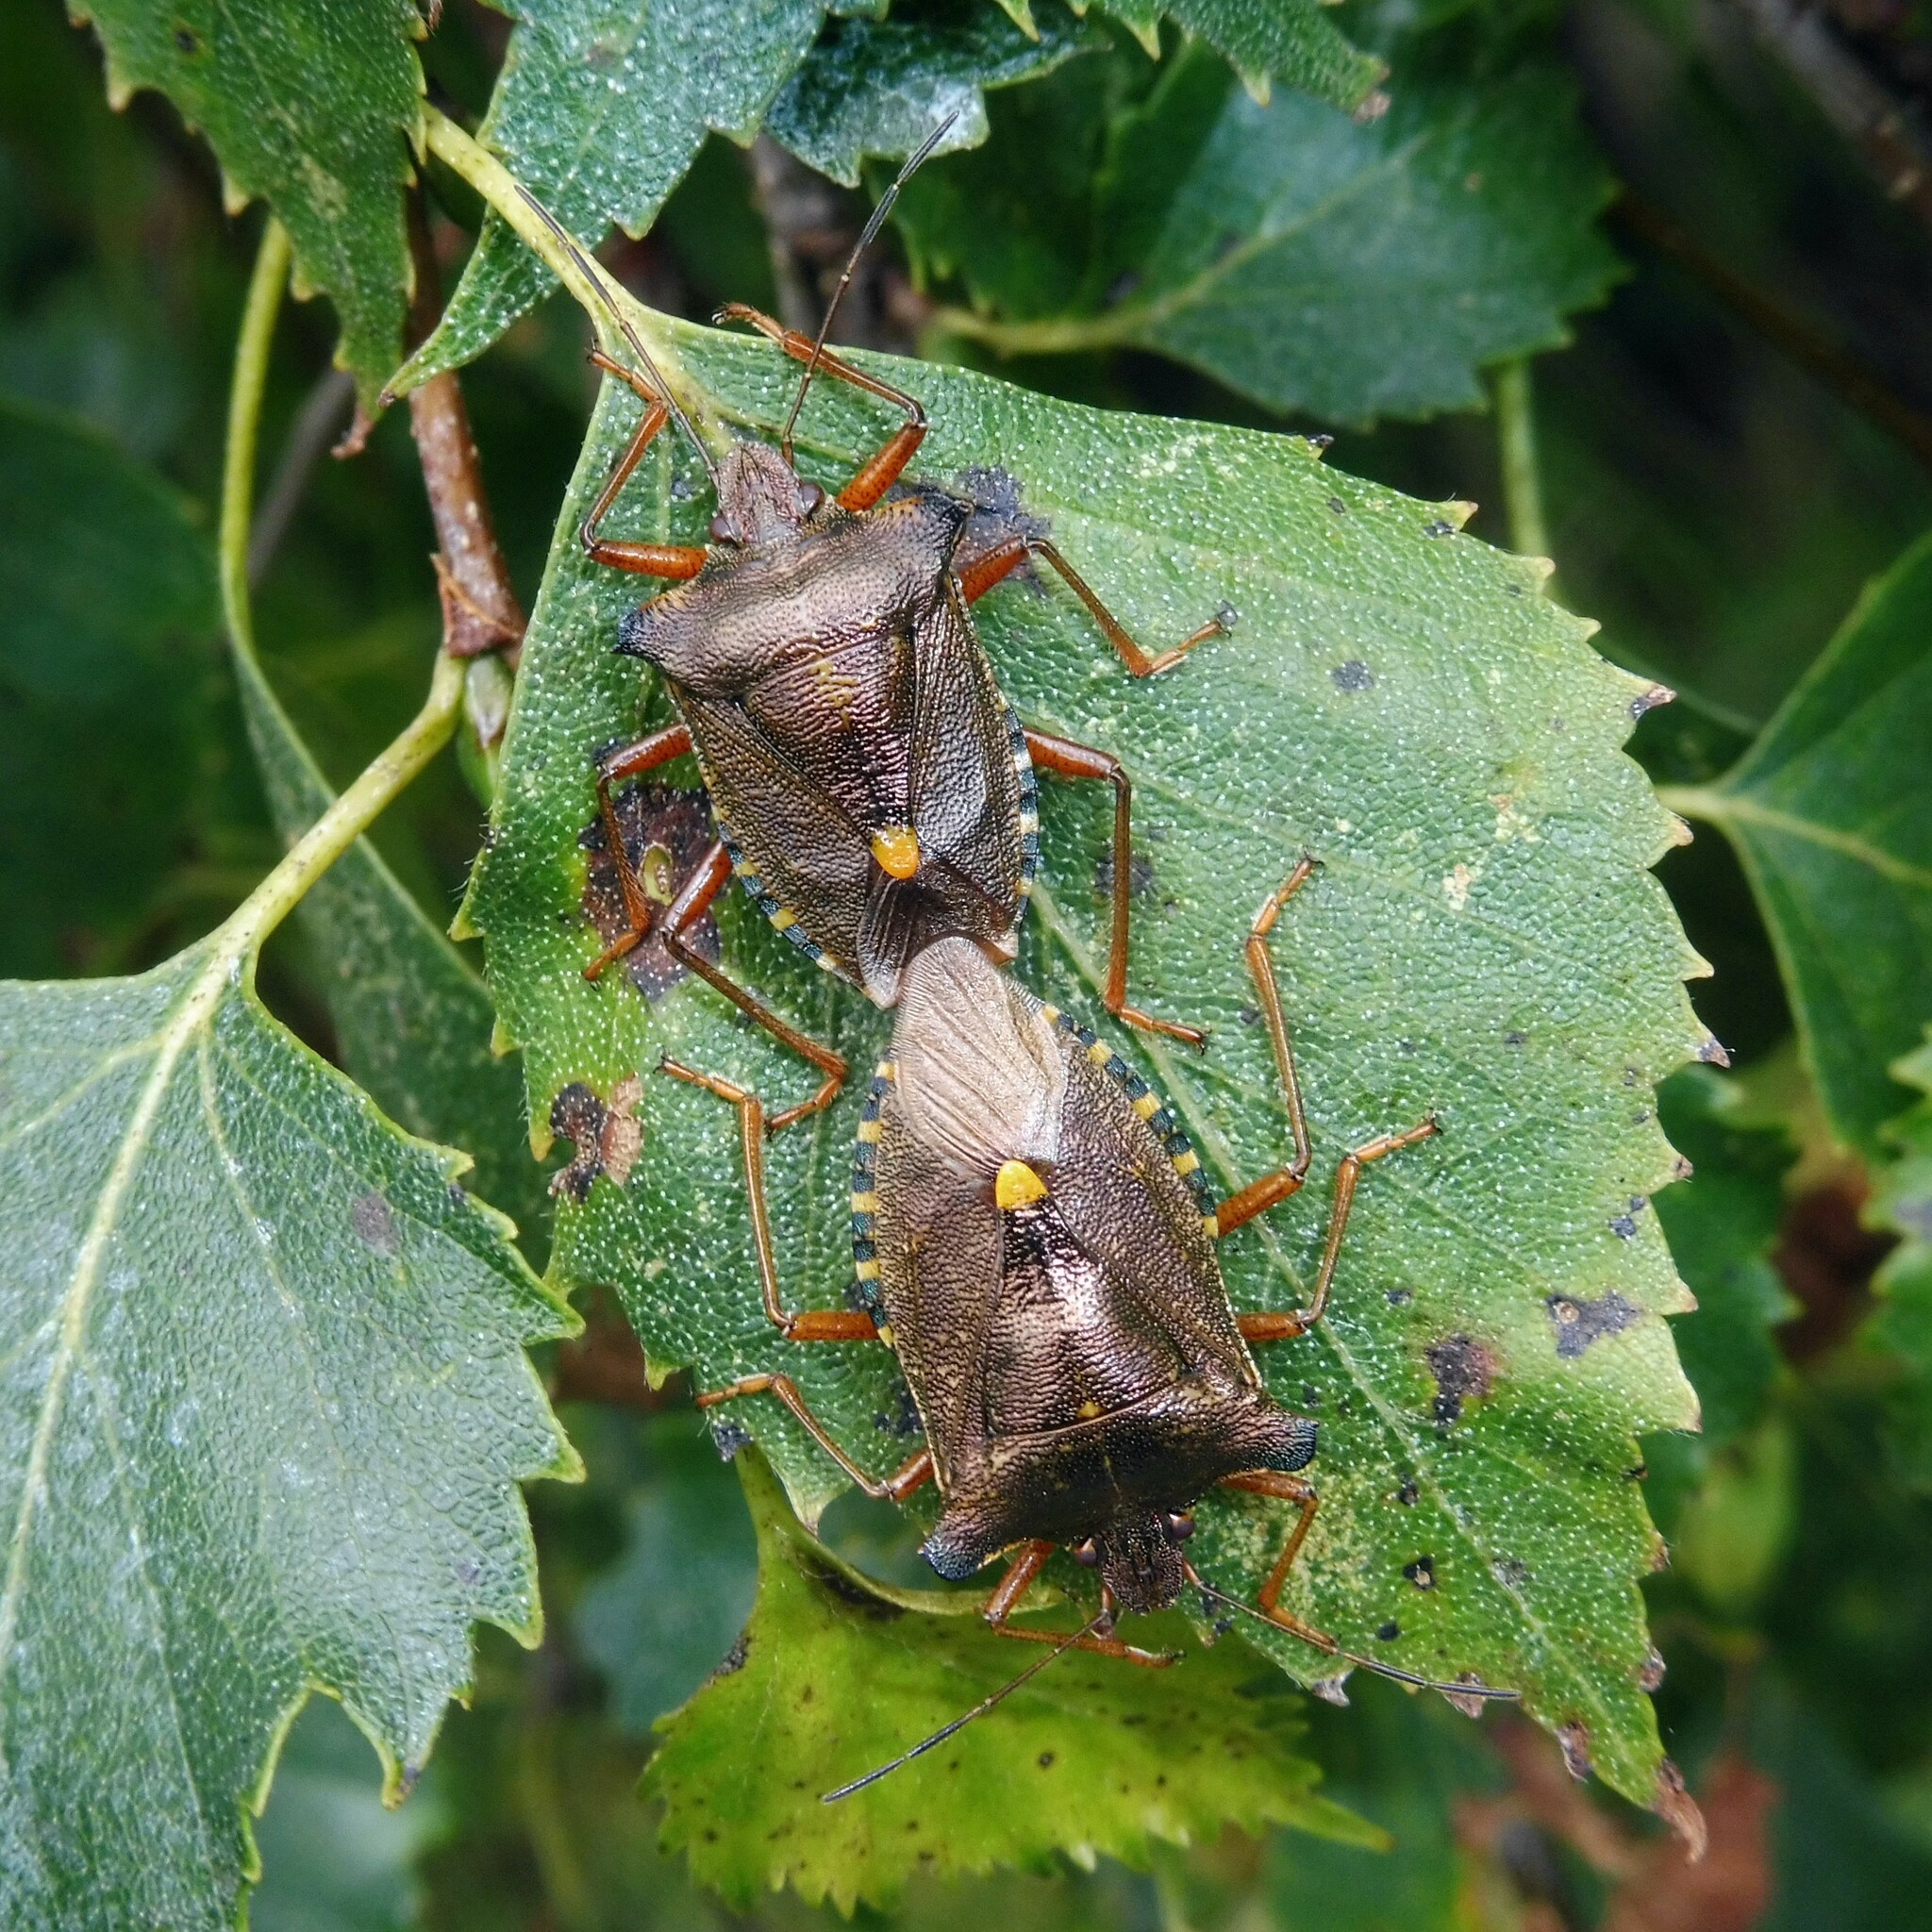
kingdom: Animalia
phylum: Arthropoda
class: Insecta
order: Hemiptera
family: Pentatomidae
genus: Pentatoma
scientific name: Pentatoma rufipes
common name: Forest bug
